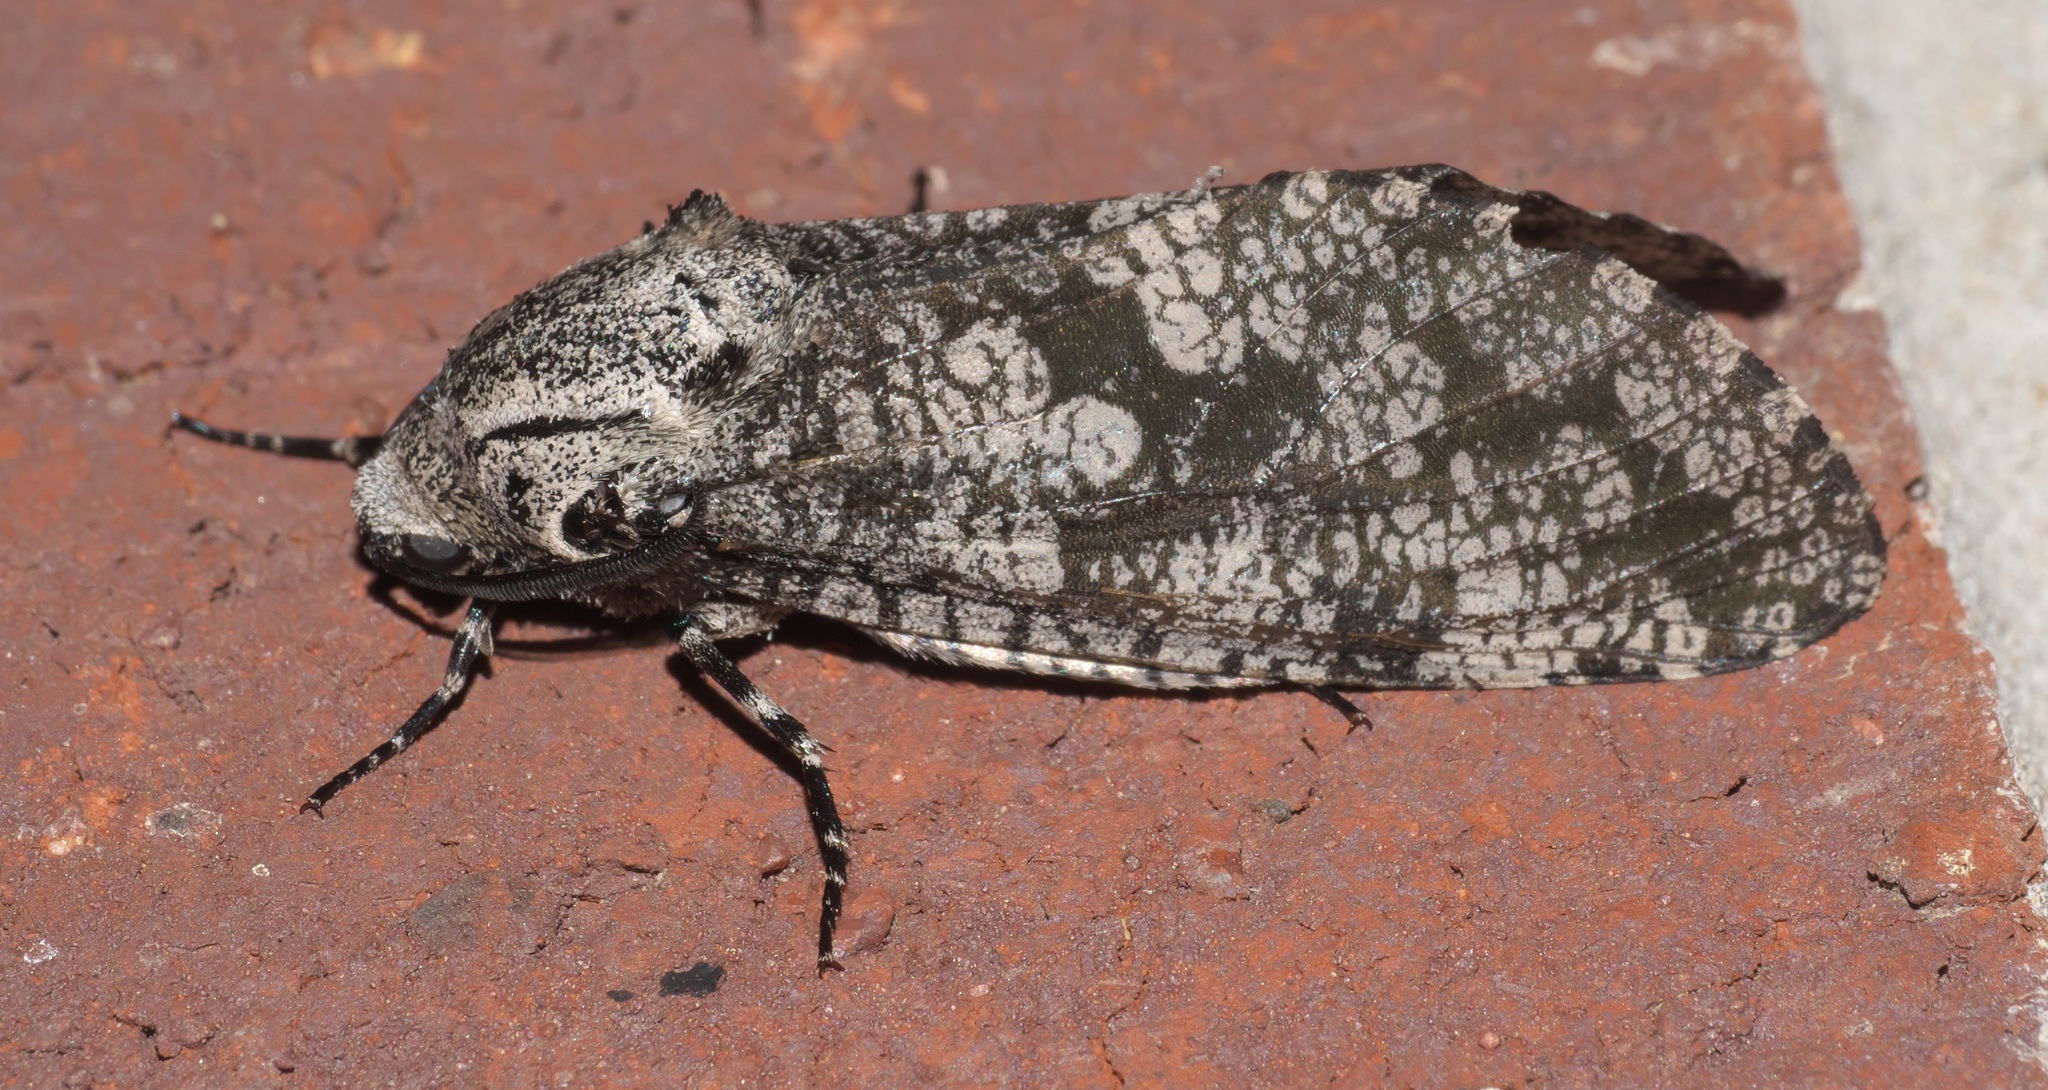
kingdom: Animalia
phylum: Arthropoda
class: Insecta
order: Lepidoptera
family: Cossidae
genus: Prionoxystus
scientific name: Prionoxystus robiniae
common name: Carpenterworm
